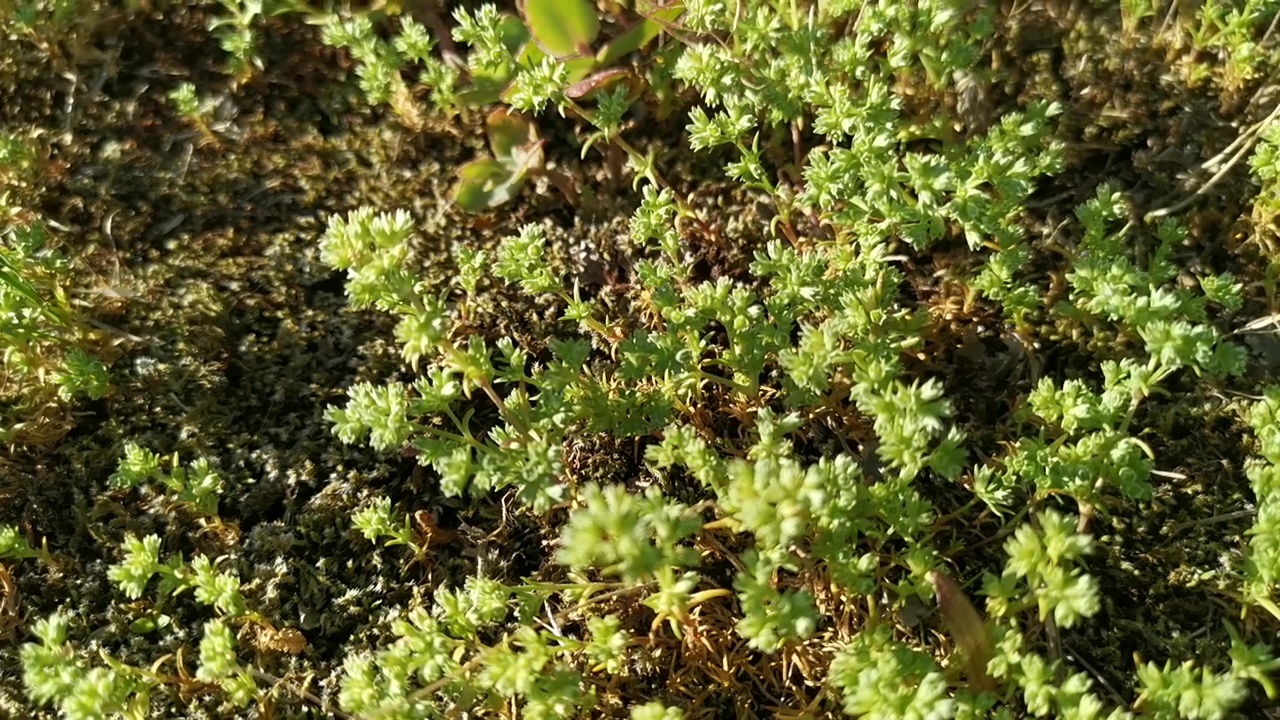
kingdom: Plantae
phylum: Tracheophyta
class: Magnoliopsida
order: Caryophyllales
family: Caryophyllaceae
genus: Scleranthus
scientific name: Scleranthus annuus
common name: Annual knawel
